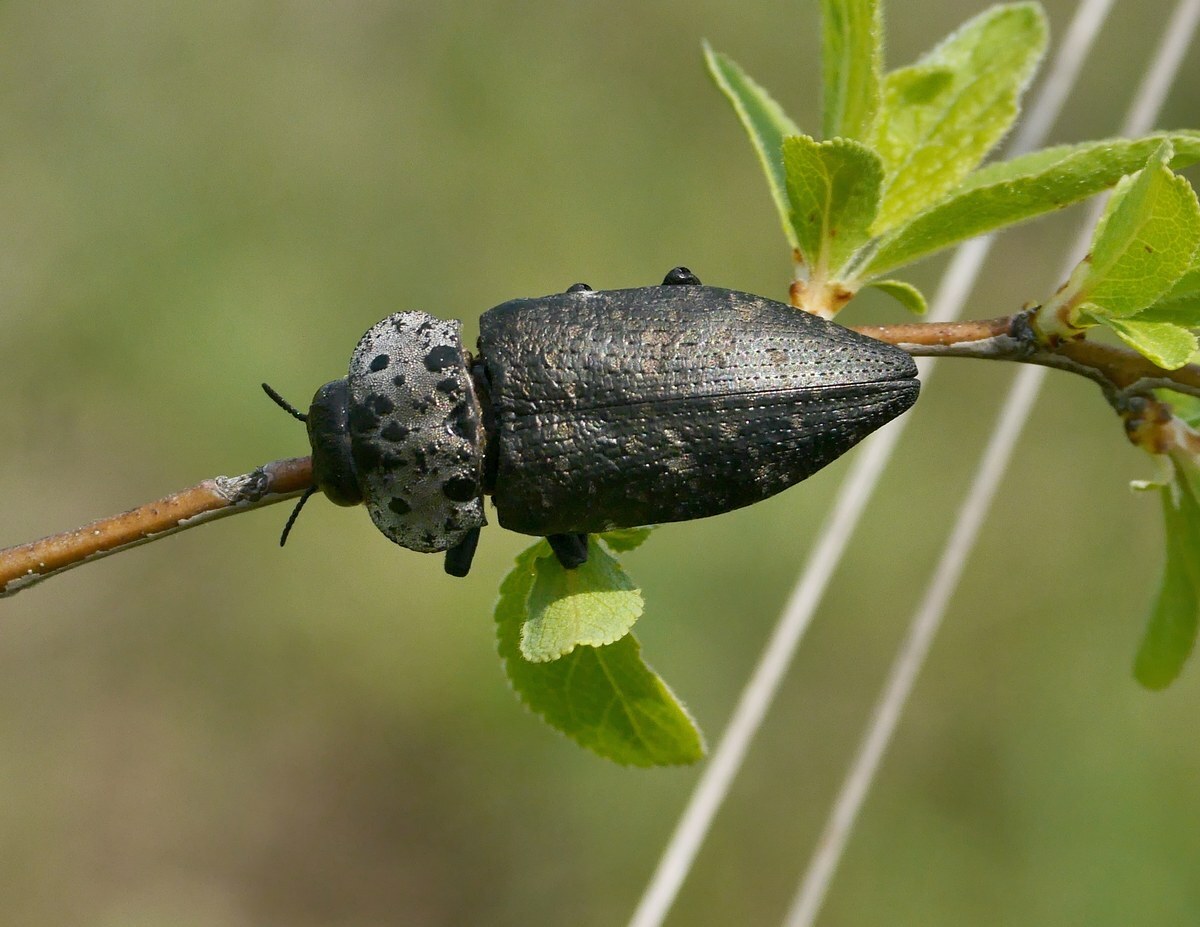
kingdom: Animalia
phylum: Arthropoda
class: Insecta
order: Coleoptera
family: Buprestidae
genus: Capnodis
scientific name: Capnodis tenebrionis
